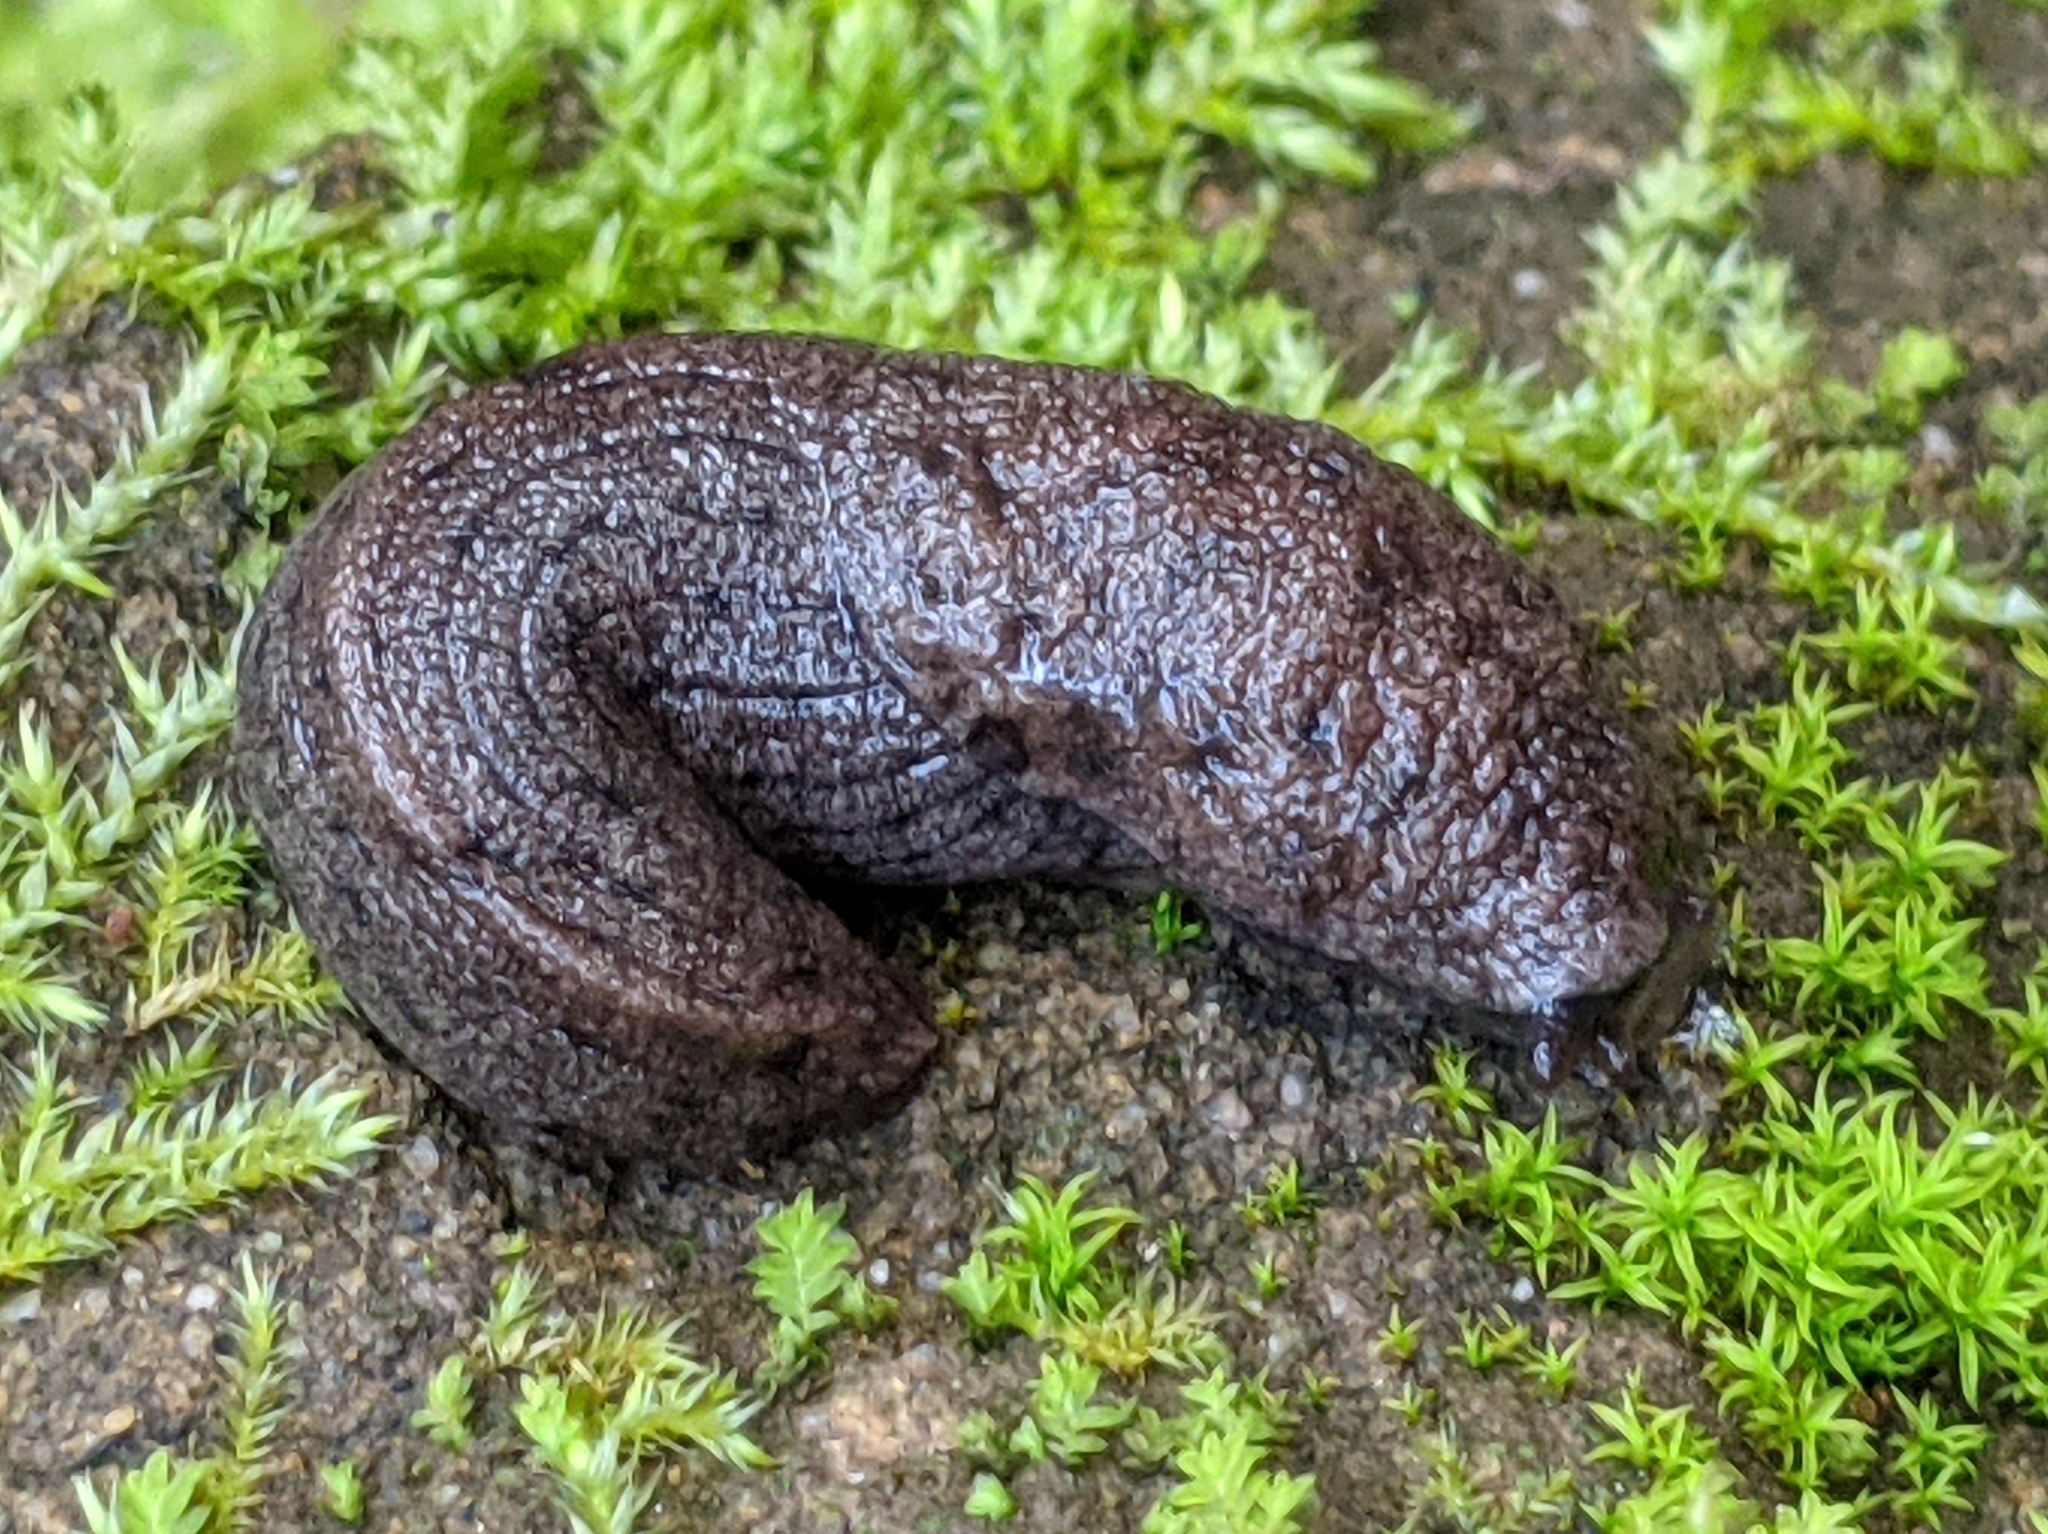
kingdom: Animalia
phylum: Mollusca
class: Gastropoda
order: Stylommatophora
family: Ariolimacidae
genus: Hesperarion
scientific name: Hesperarion niger
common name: Black western slug
